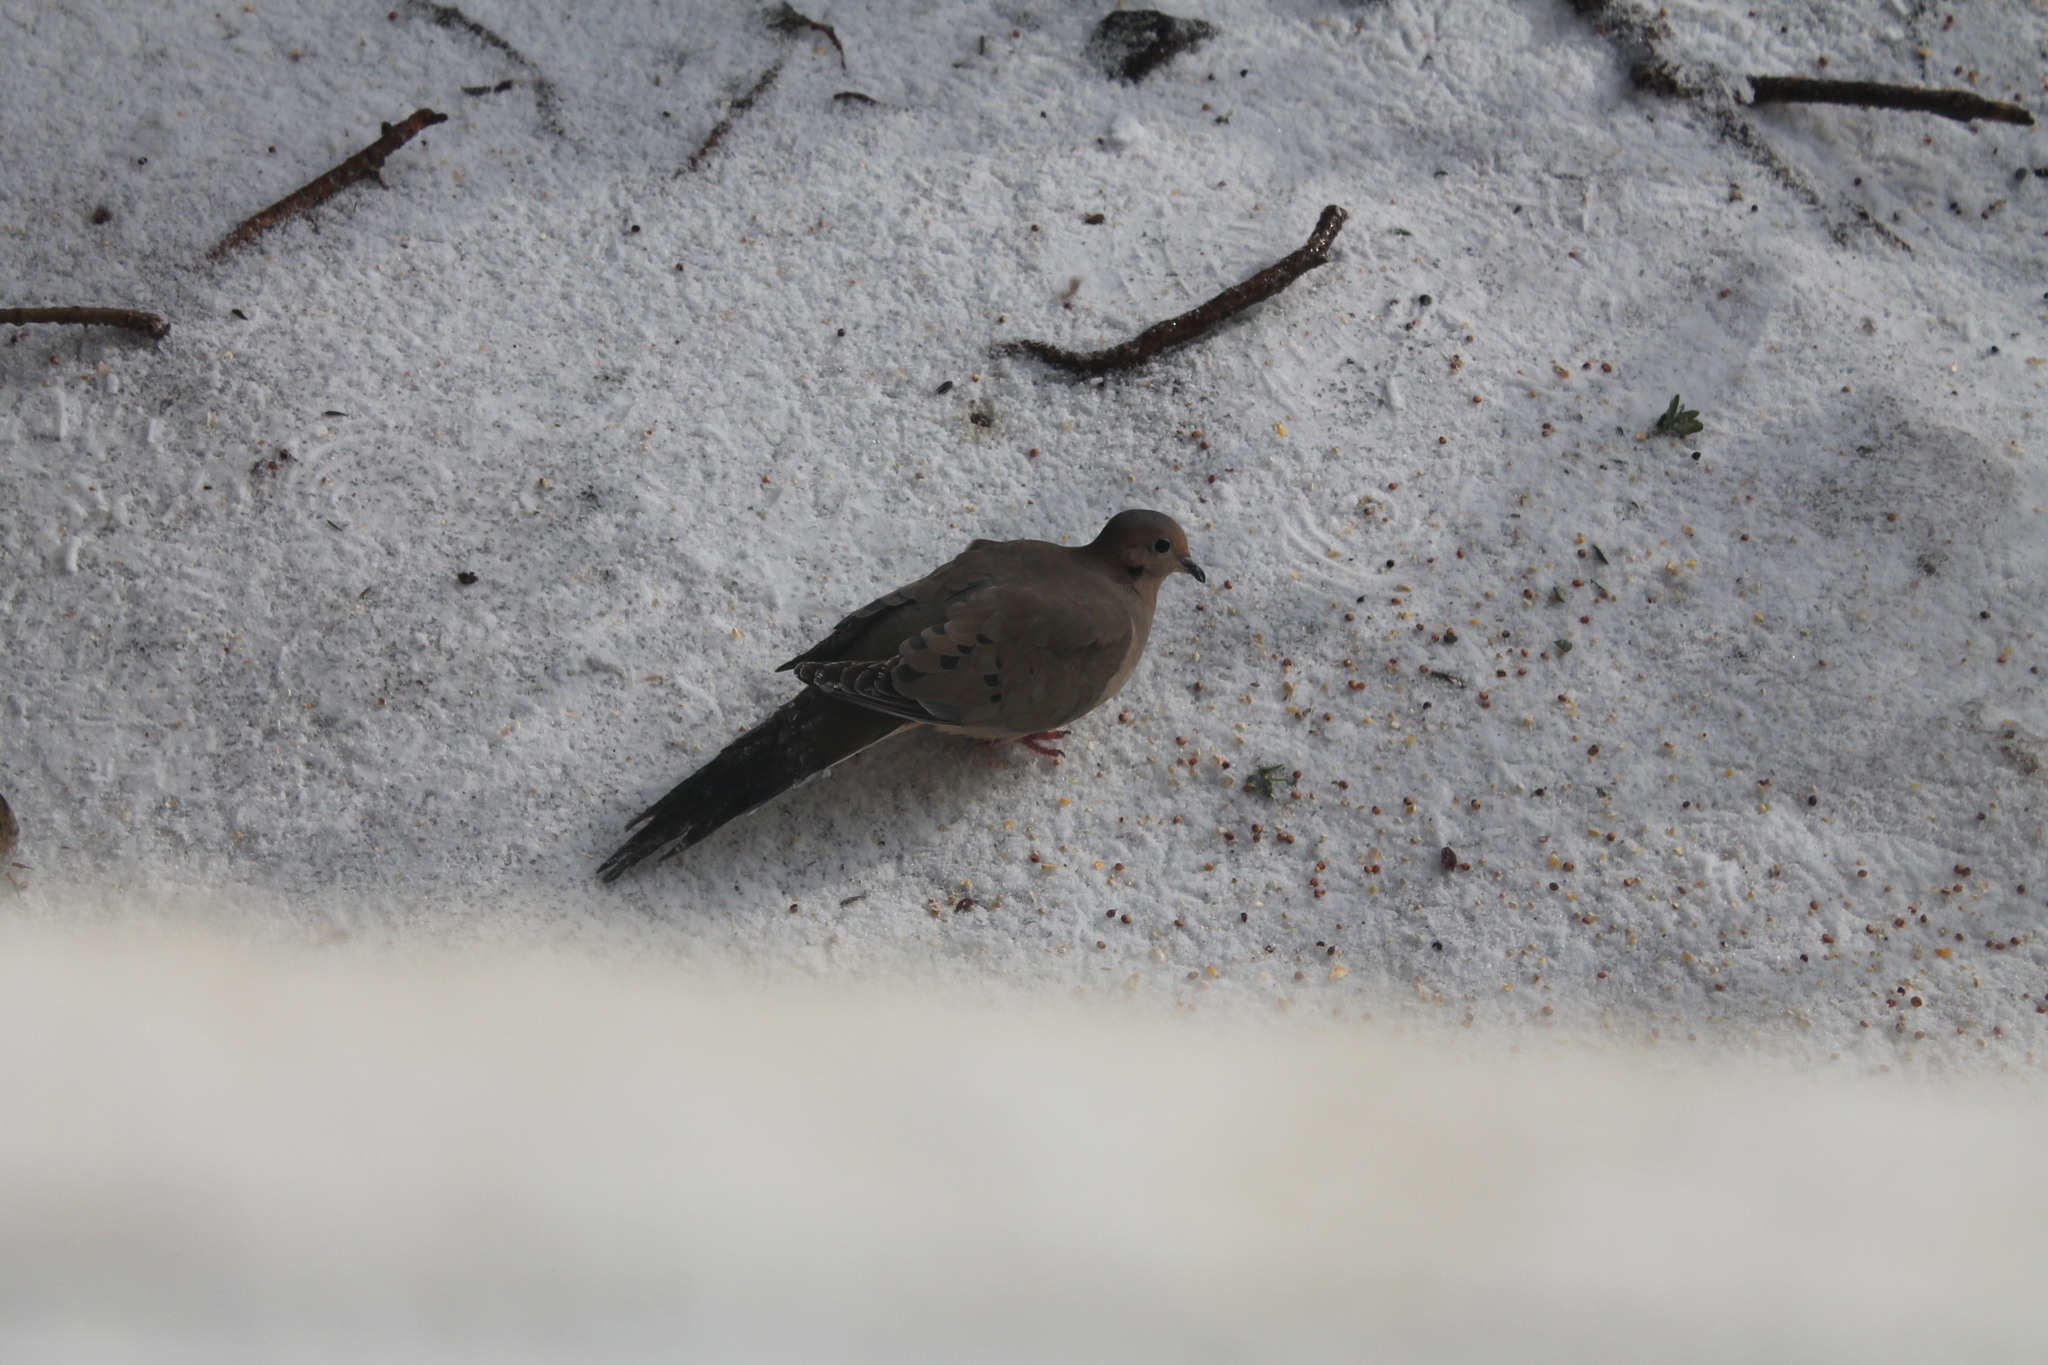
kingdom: Animalia
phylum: Chordata
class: Aves
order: Columbiformes
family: Columbidae
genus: Zenaida
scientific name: Zenaida macroura
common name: Mourning dove
